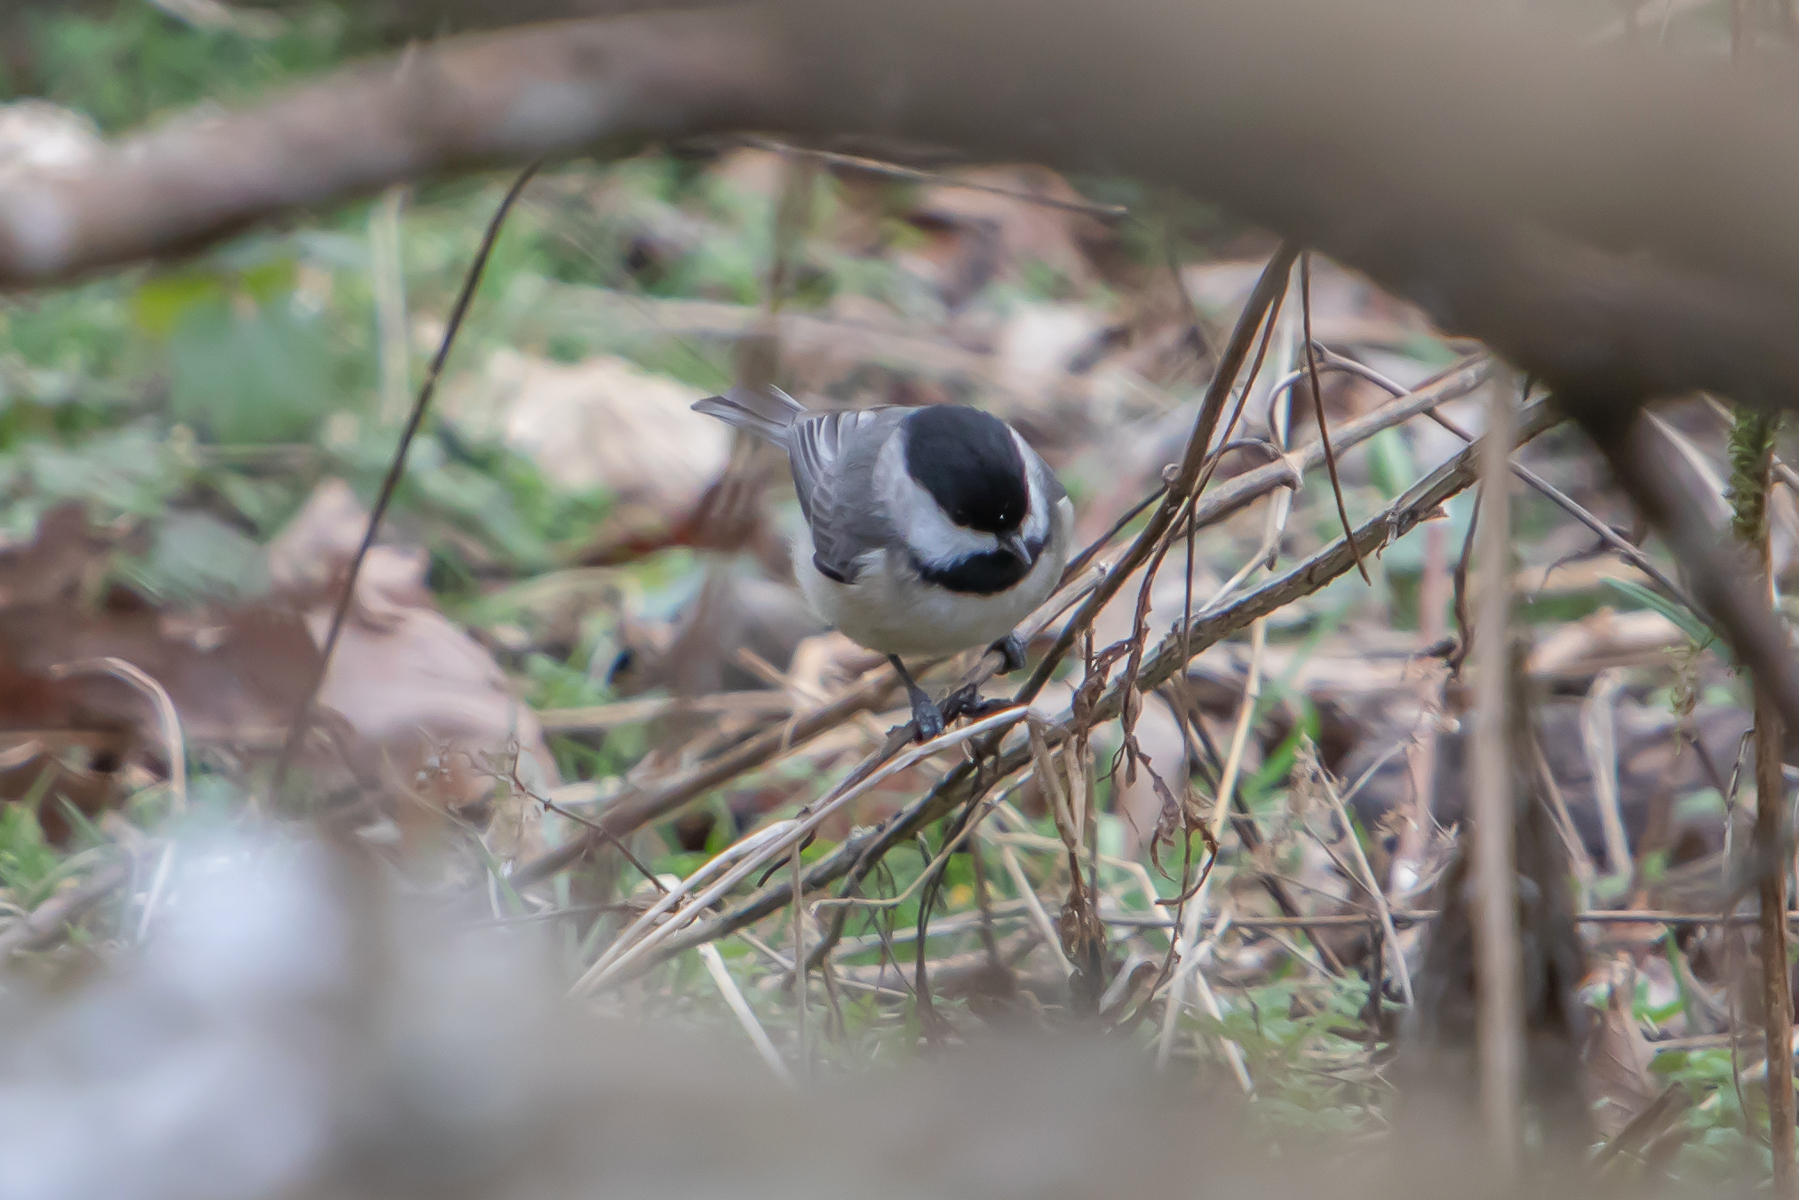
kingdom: Animalia
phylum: Chordata
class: Aves
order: Passeriformes
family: Paridae
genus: Poecile
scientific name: Poecile carolinensis
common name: Carolina chickadee
